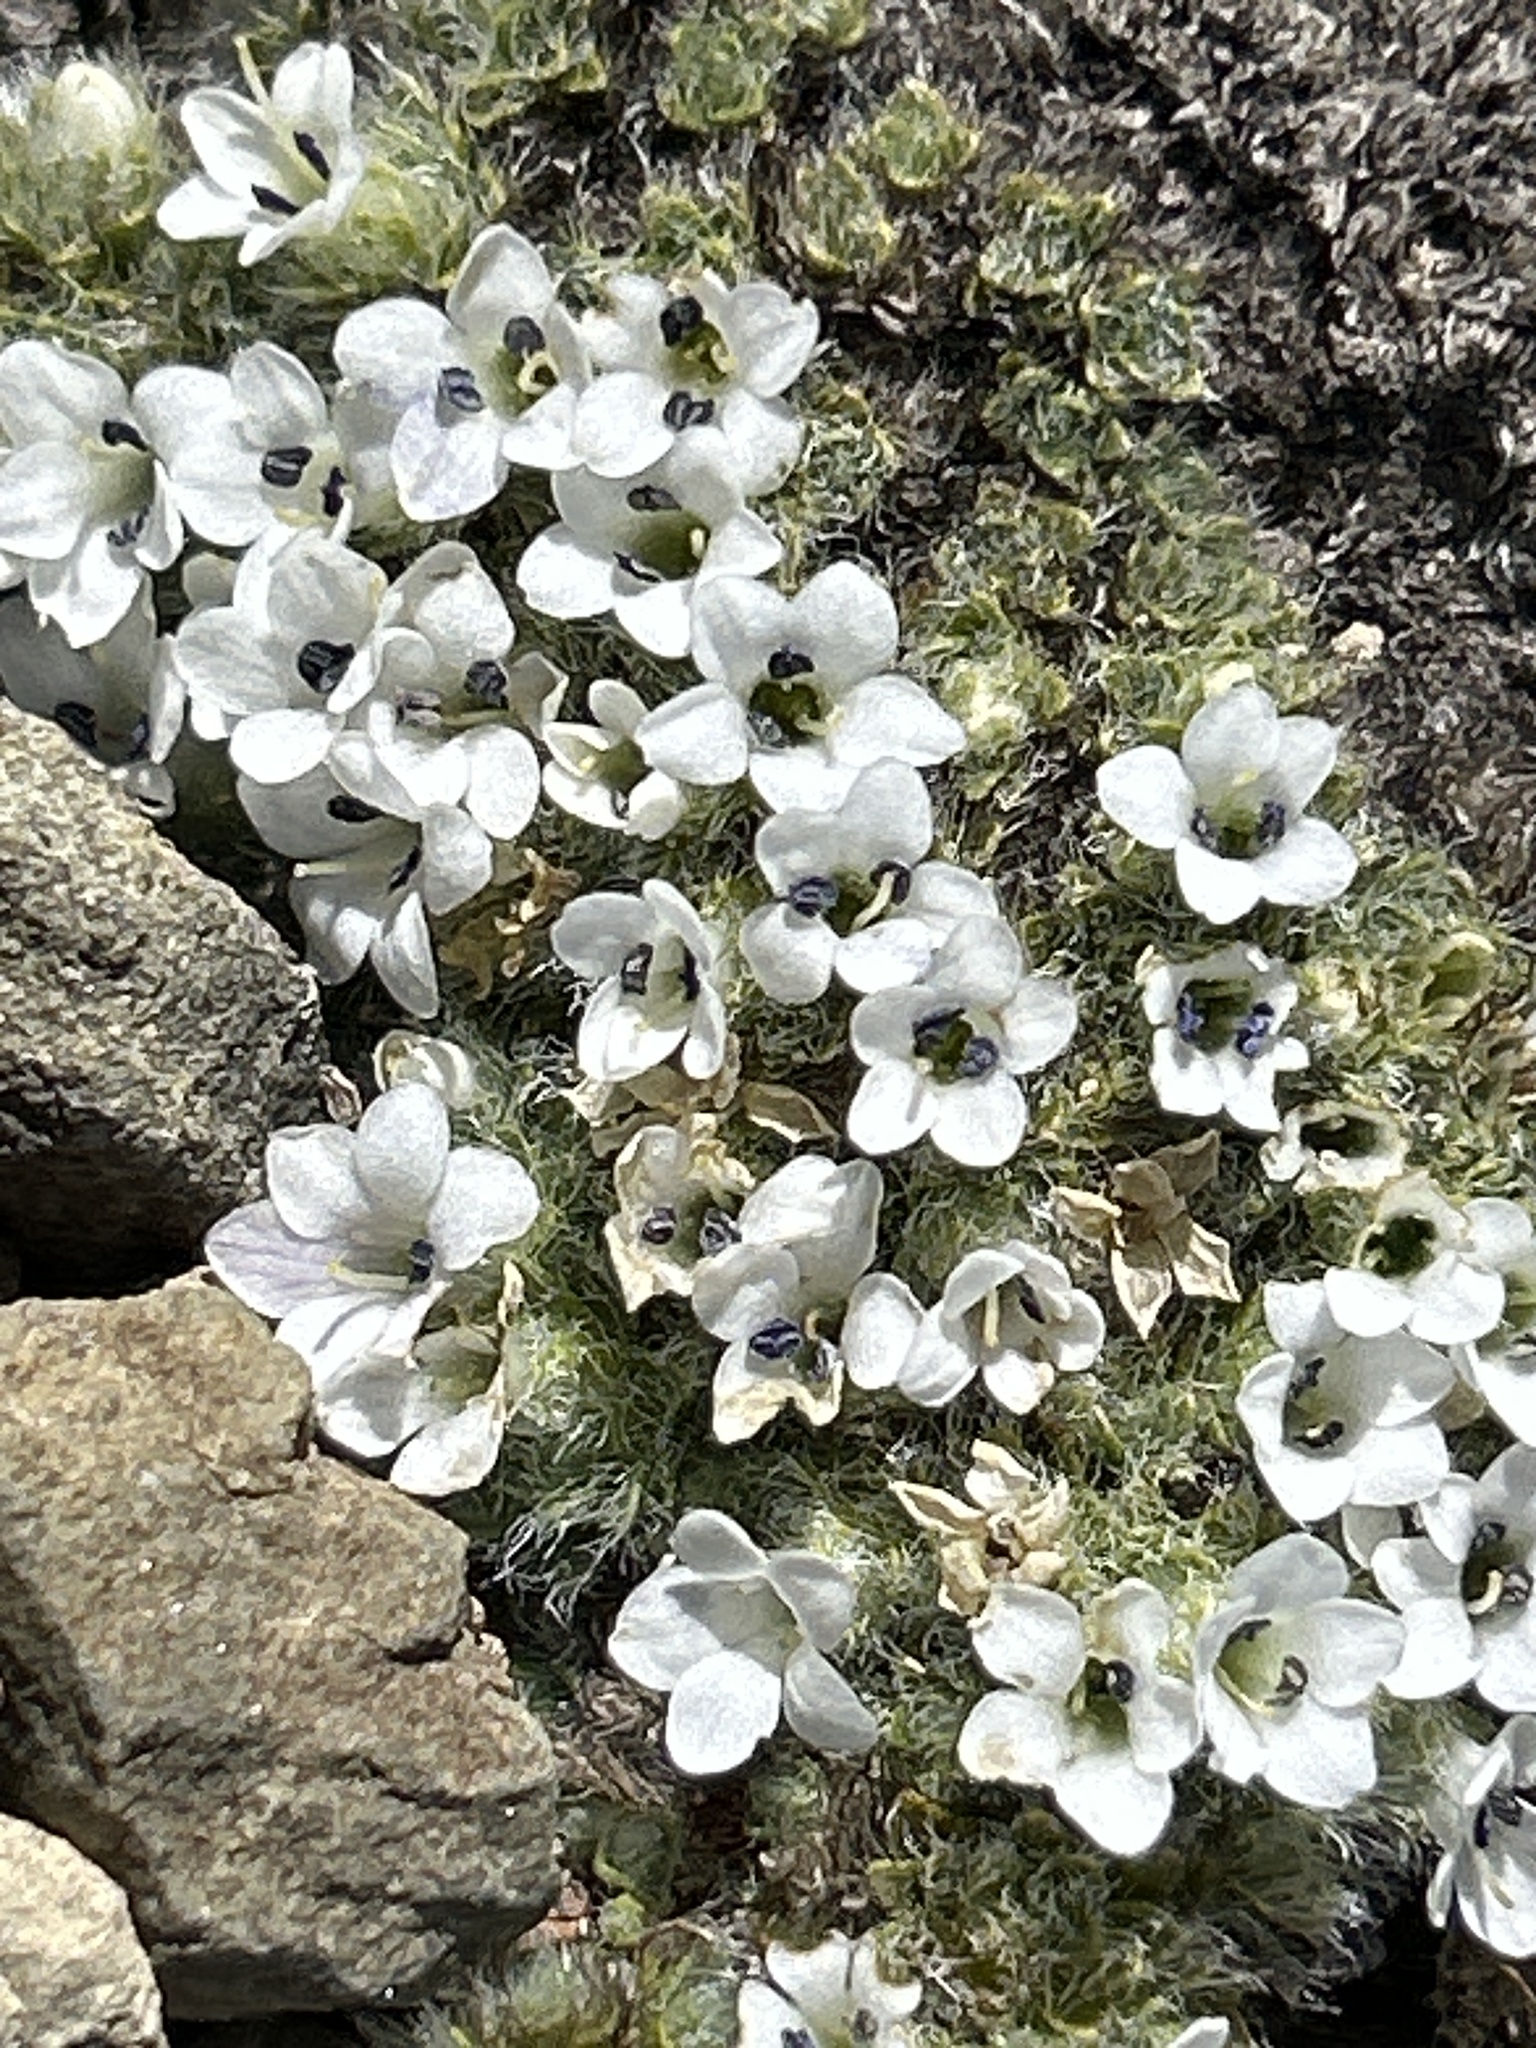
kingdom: Plantae
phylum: Tracheophyta
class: Magnoliopsida
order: Lamiales
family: Plantaginaceae
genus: Veronica
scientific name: Veronica pulvinaris
